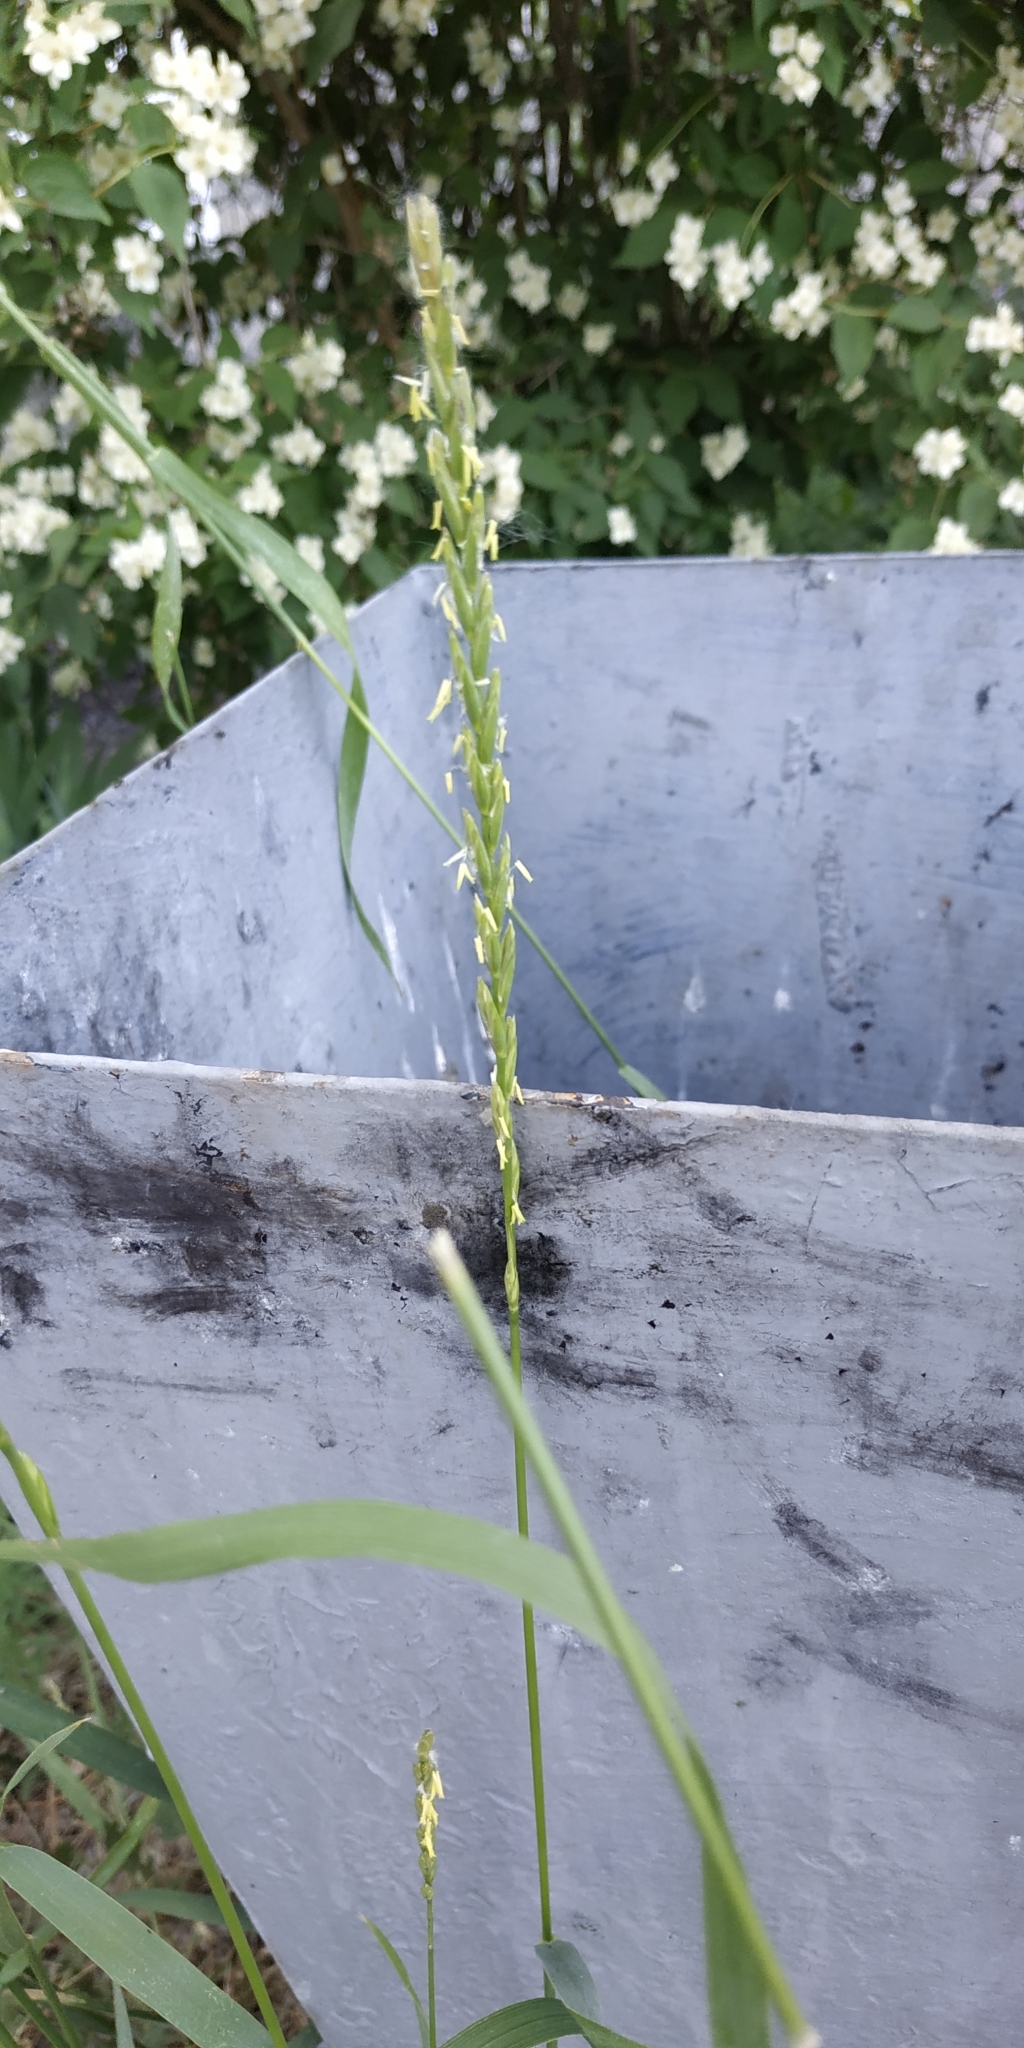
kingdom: Plantae
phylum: Tracheophyta
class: Liliopsida
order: Poales
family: Poaceae
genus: Elymus
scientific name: Elymus repens
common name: Quackgrass
